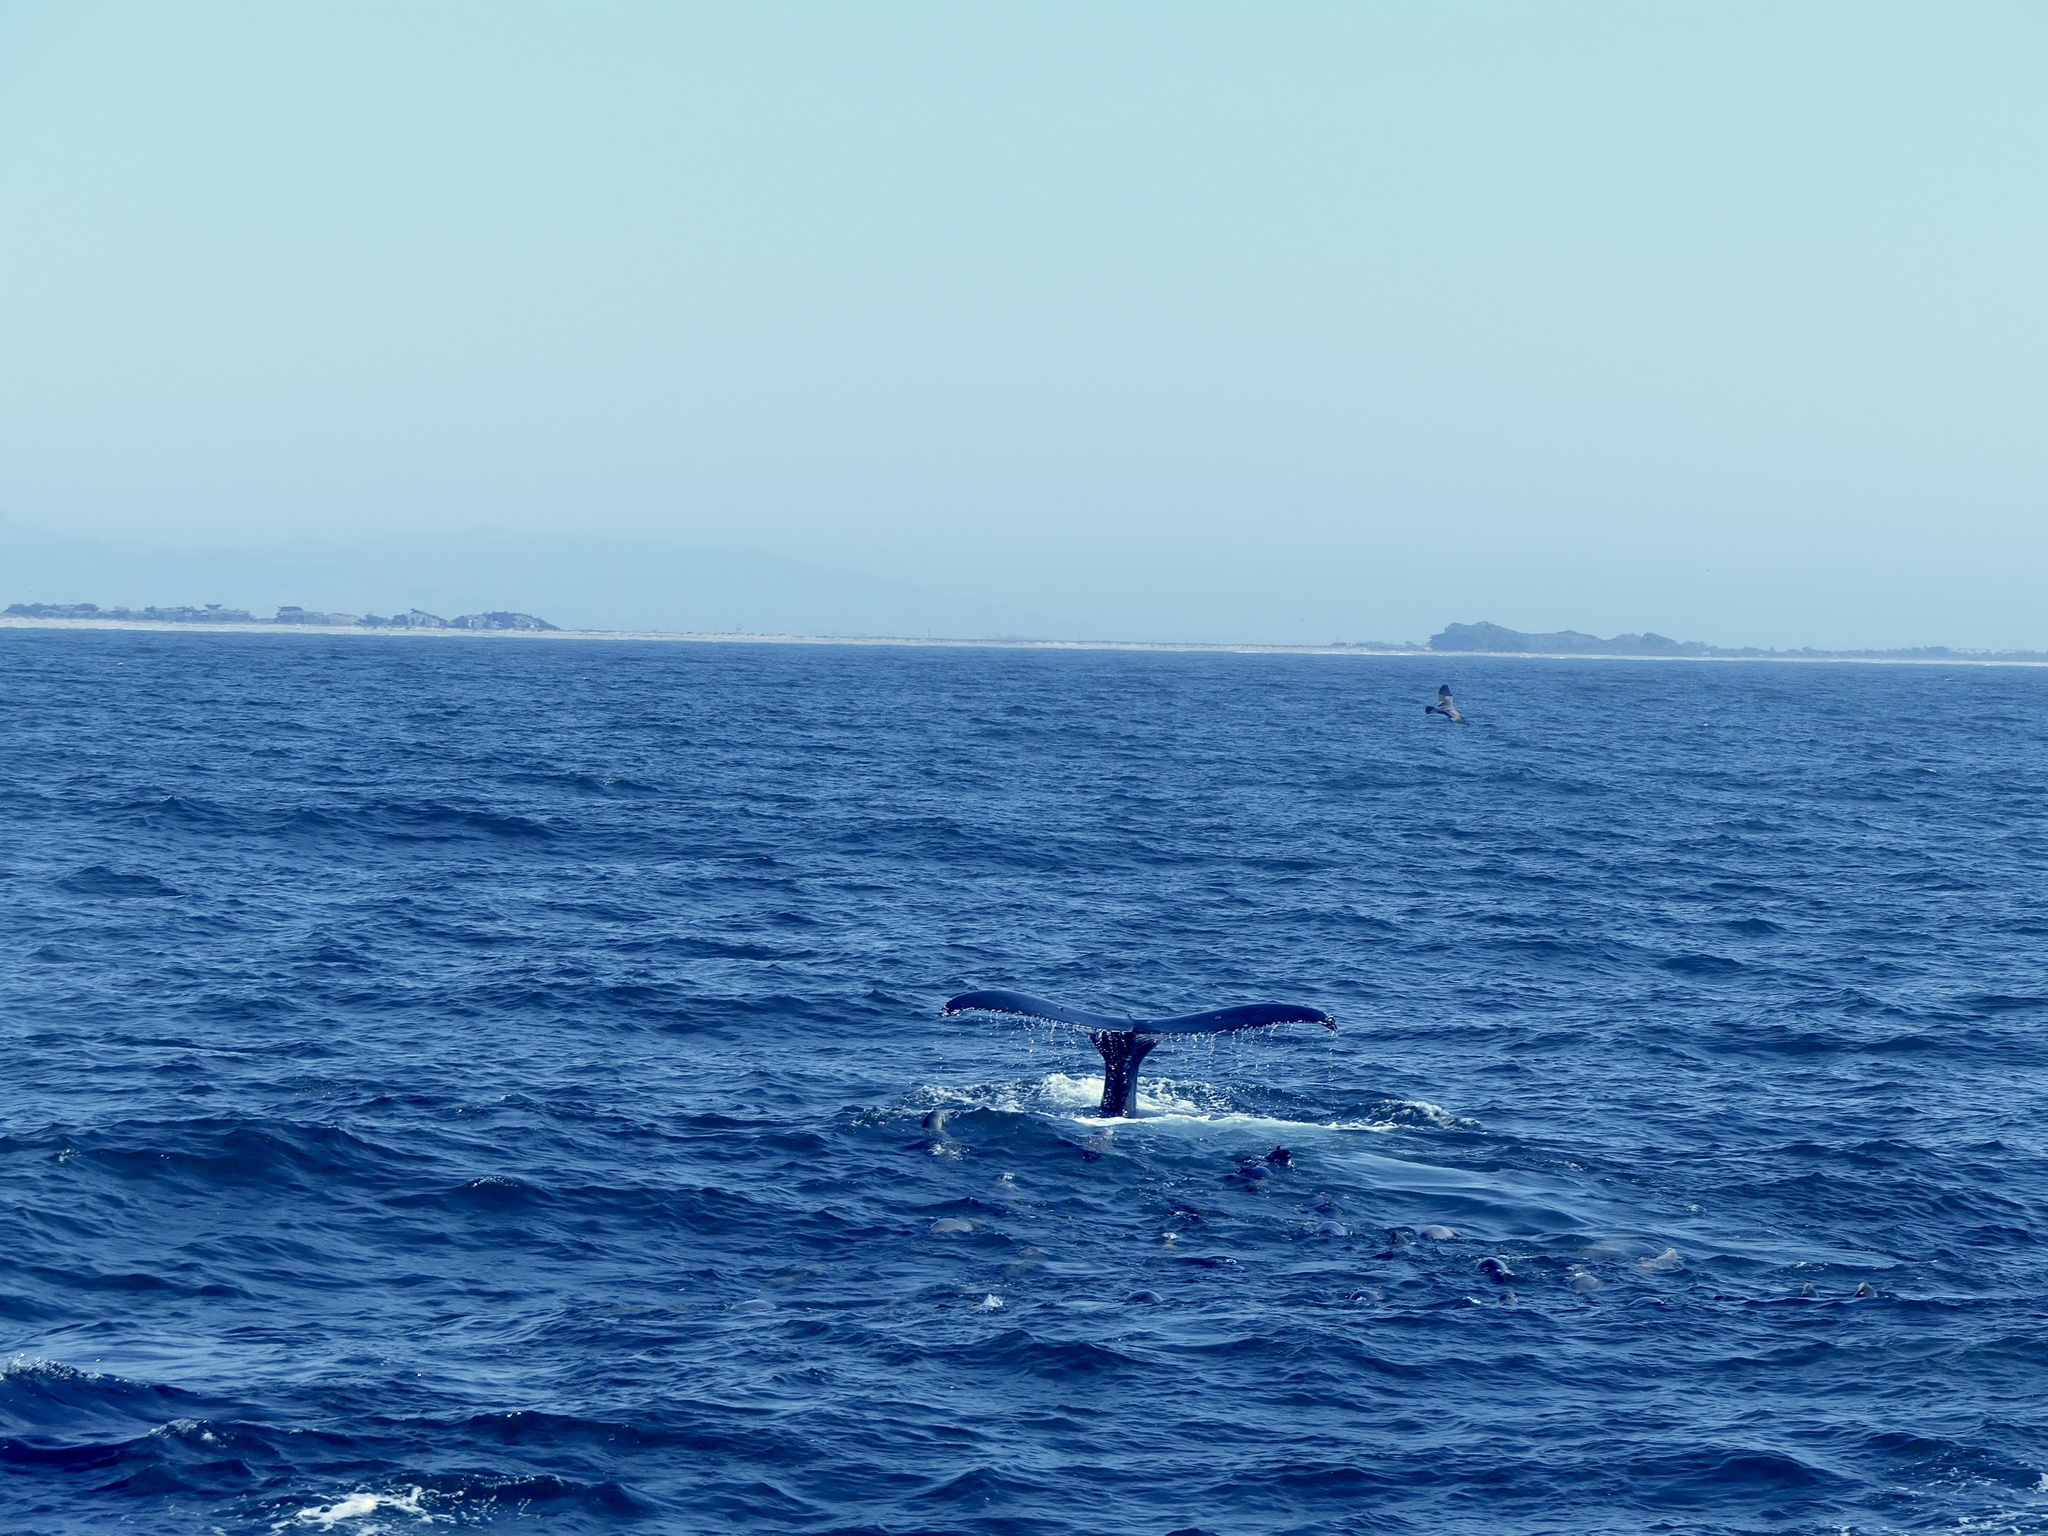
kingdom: Animalia
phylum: Chordata
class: Mammalia
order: Cetacea
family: Balaenopteridae
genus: Megaptera
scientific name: Megaptera novaeangliae
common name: Humpback whale
